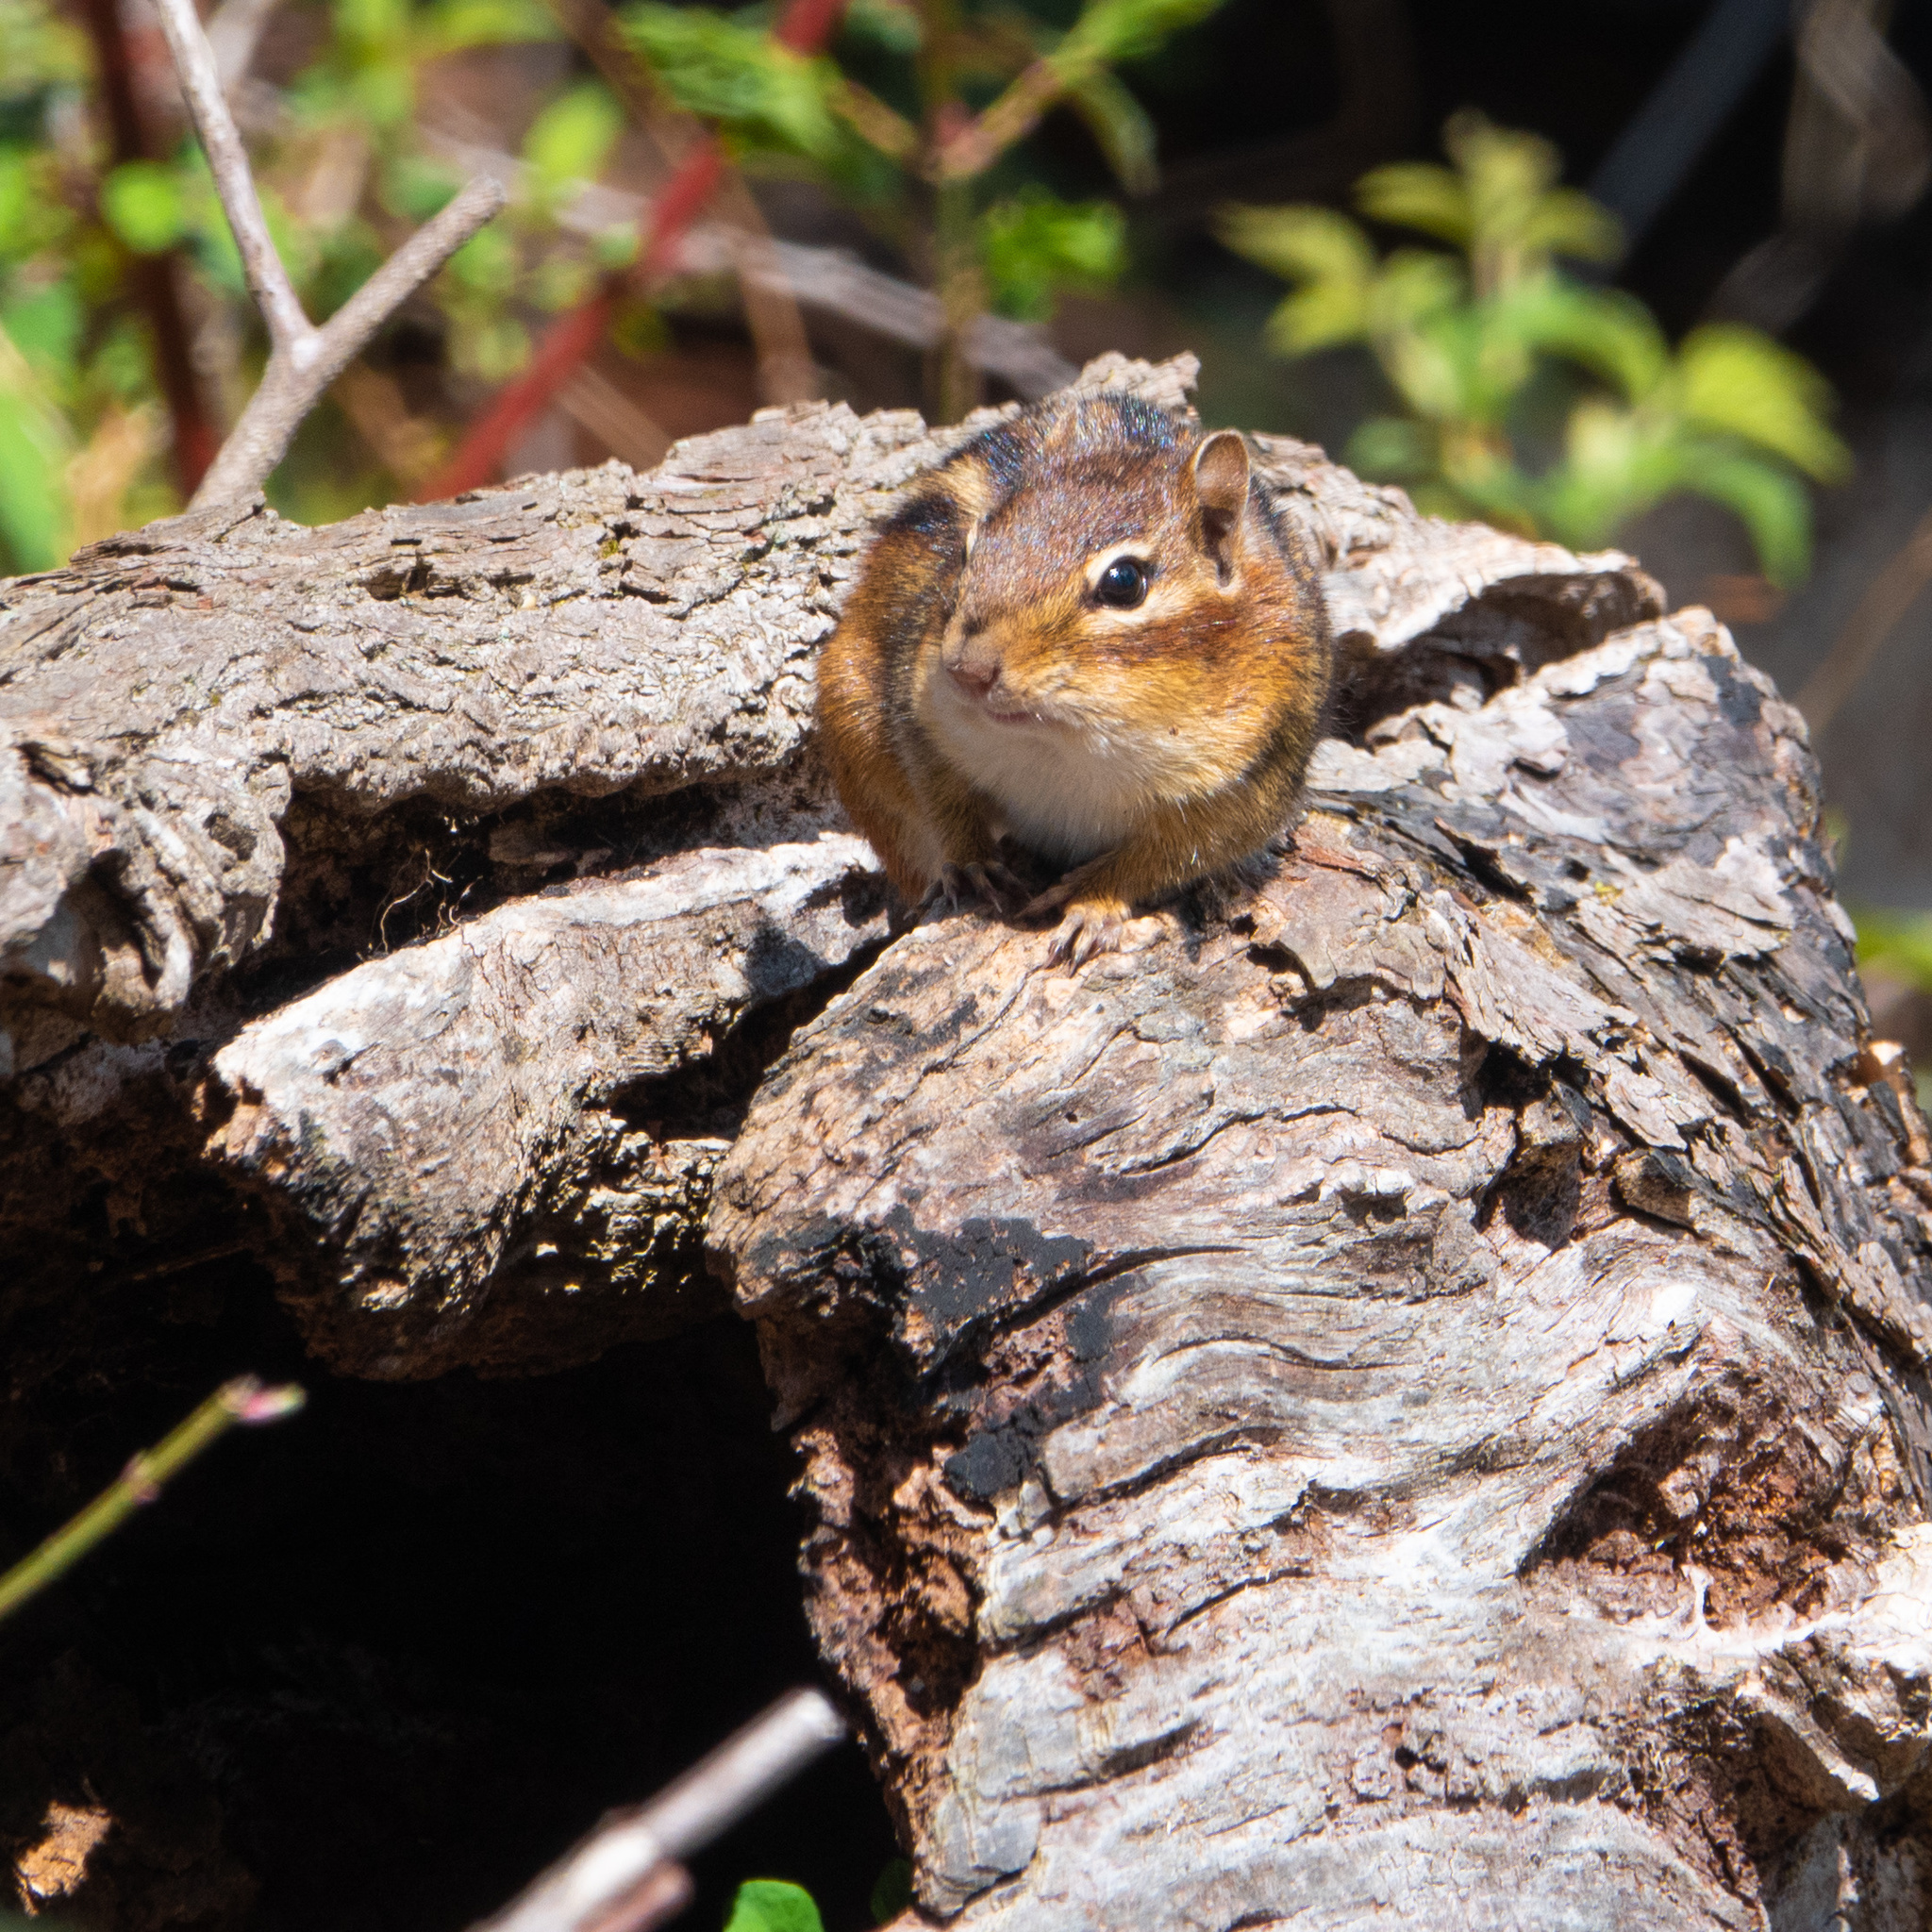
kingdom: Animalia
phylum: Chordata
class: Mammalia
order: Rodentia
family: Sciuridae
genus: Tamias
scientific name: Tamias striatus
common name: Eastern chipmunk
